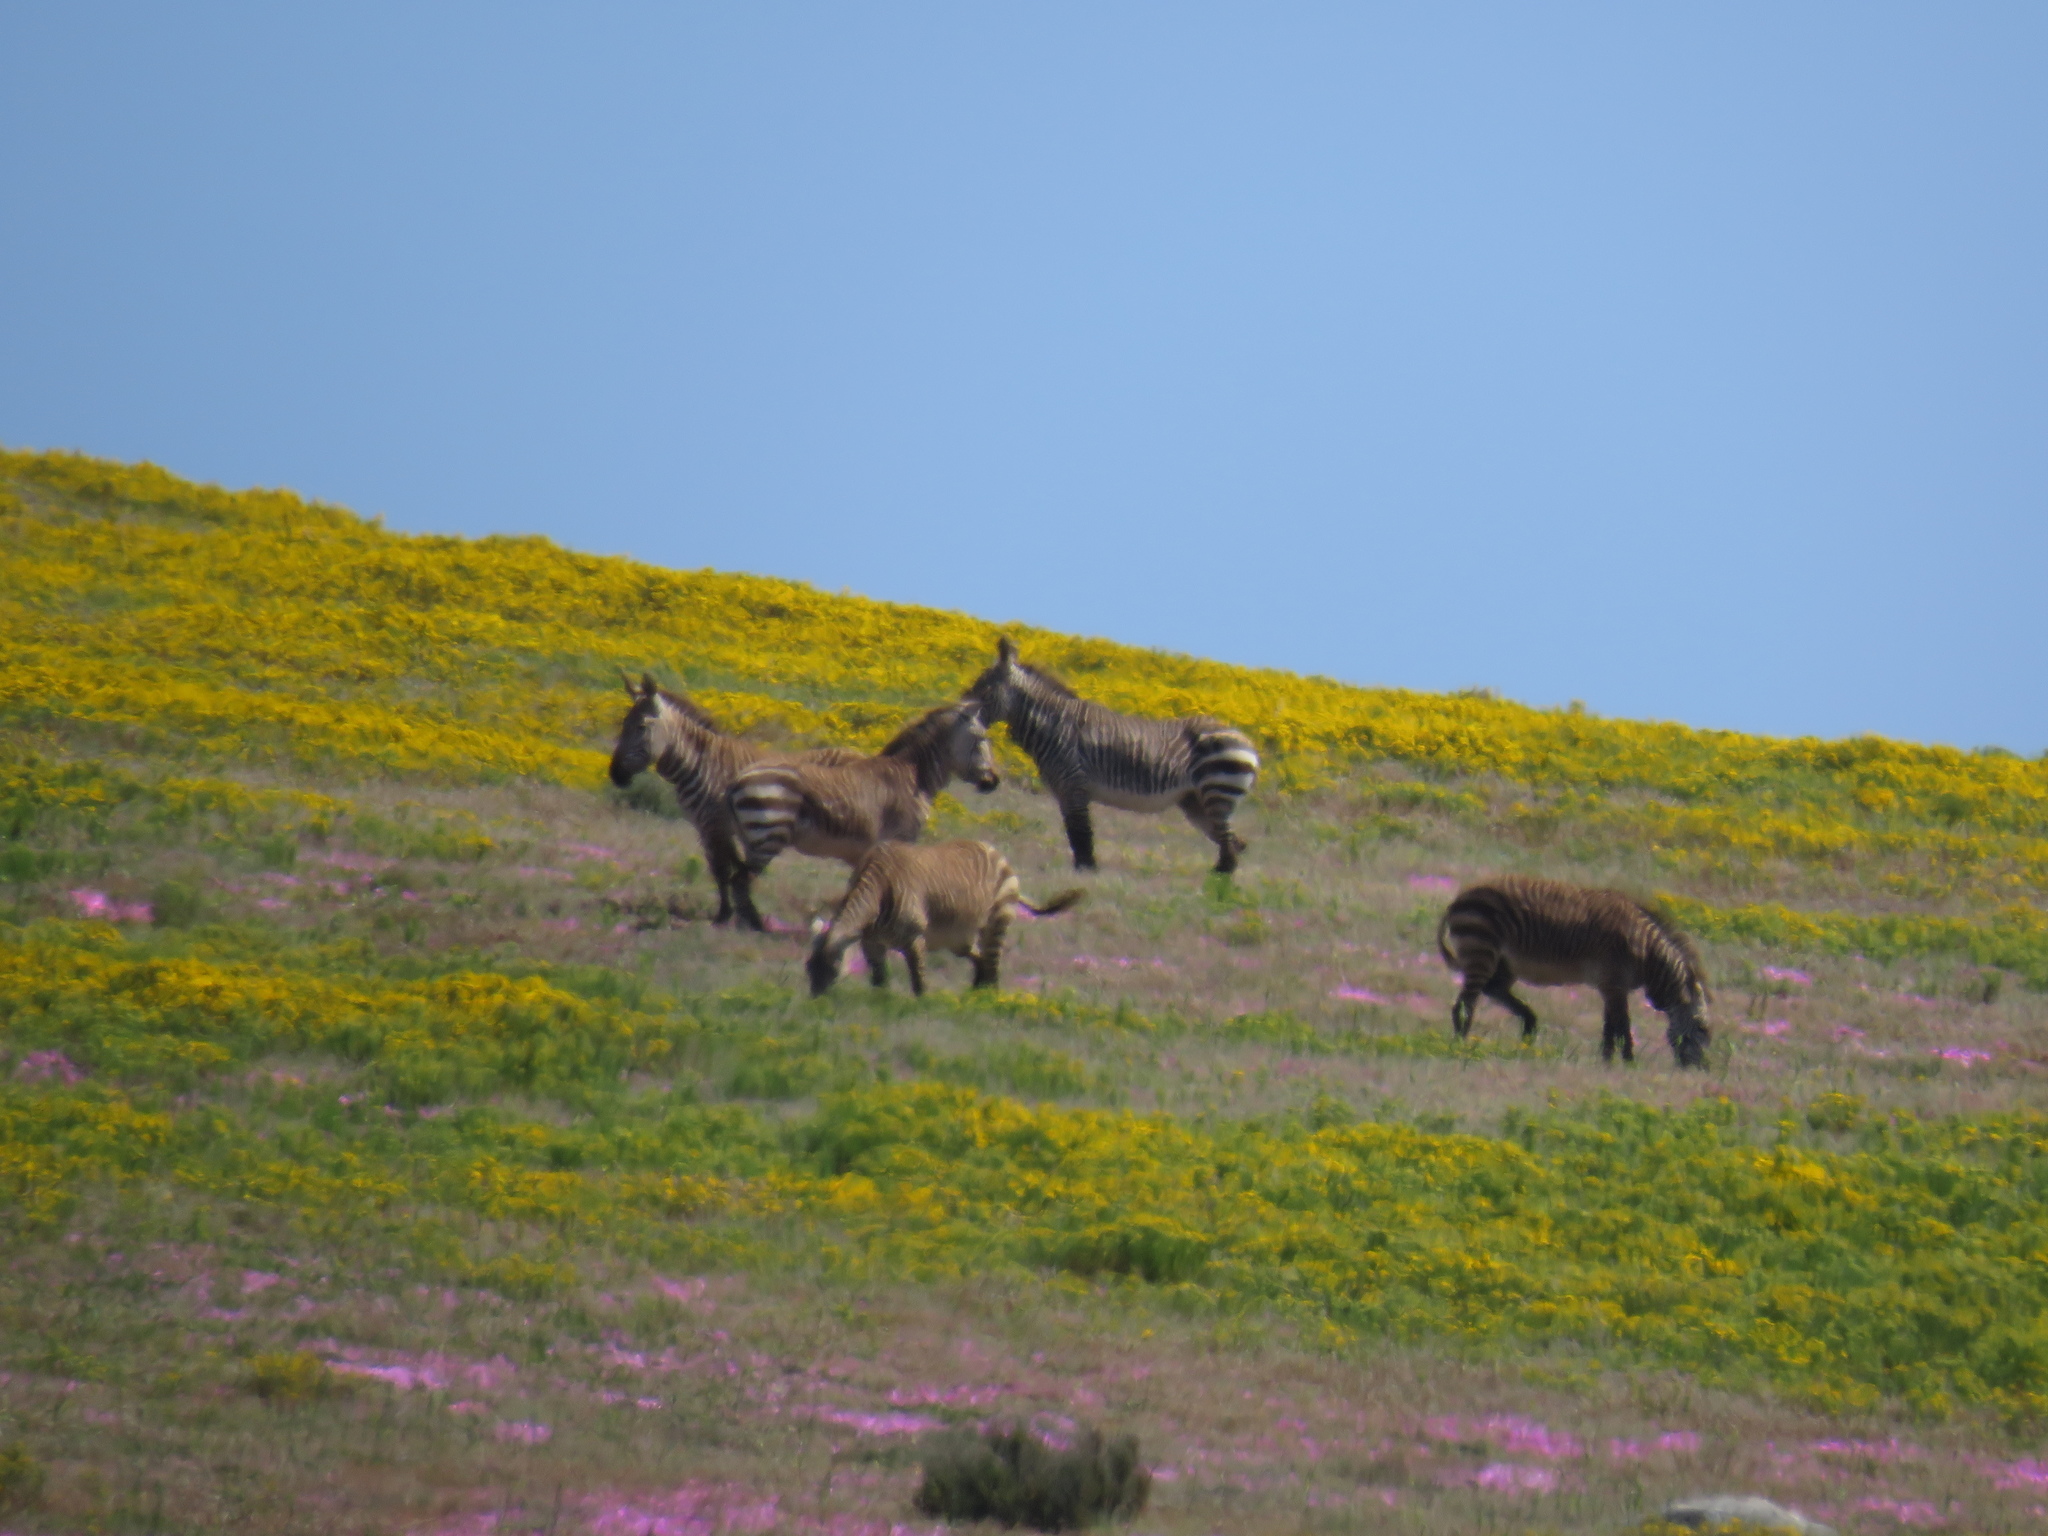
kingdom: Animalia
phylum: Chordata
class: Mammalia
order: Perissodactyla
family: Equidae
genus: Equus
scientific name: Equus zebra
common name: Mountain zebra
